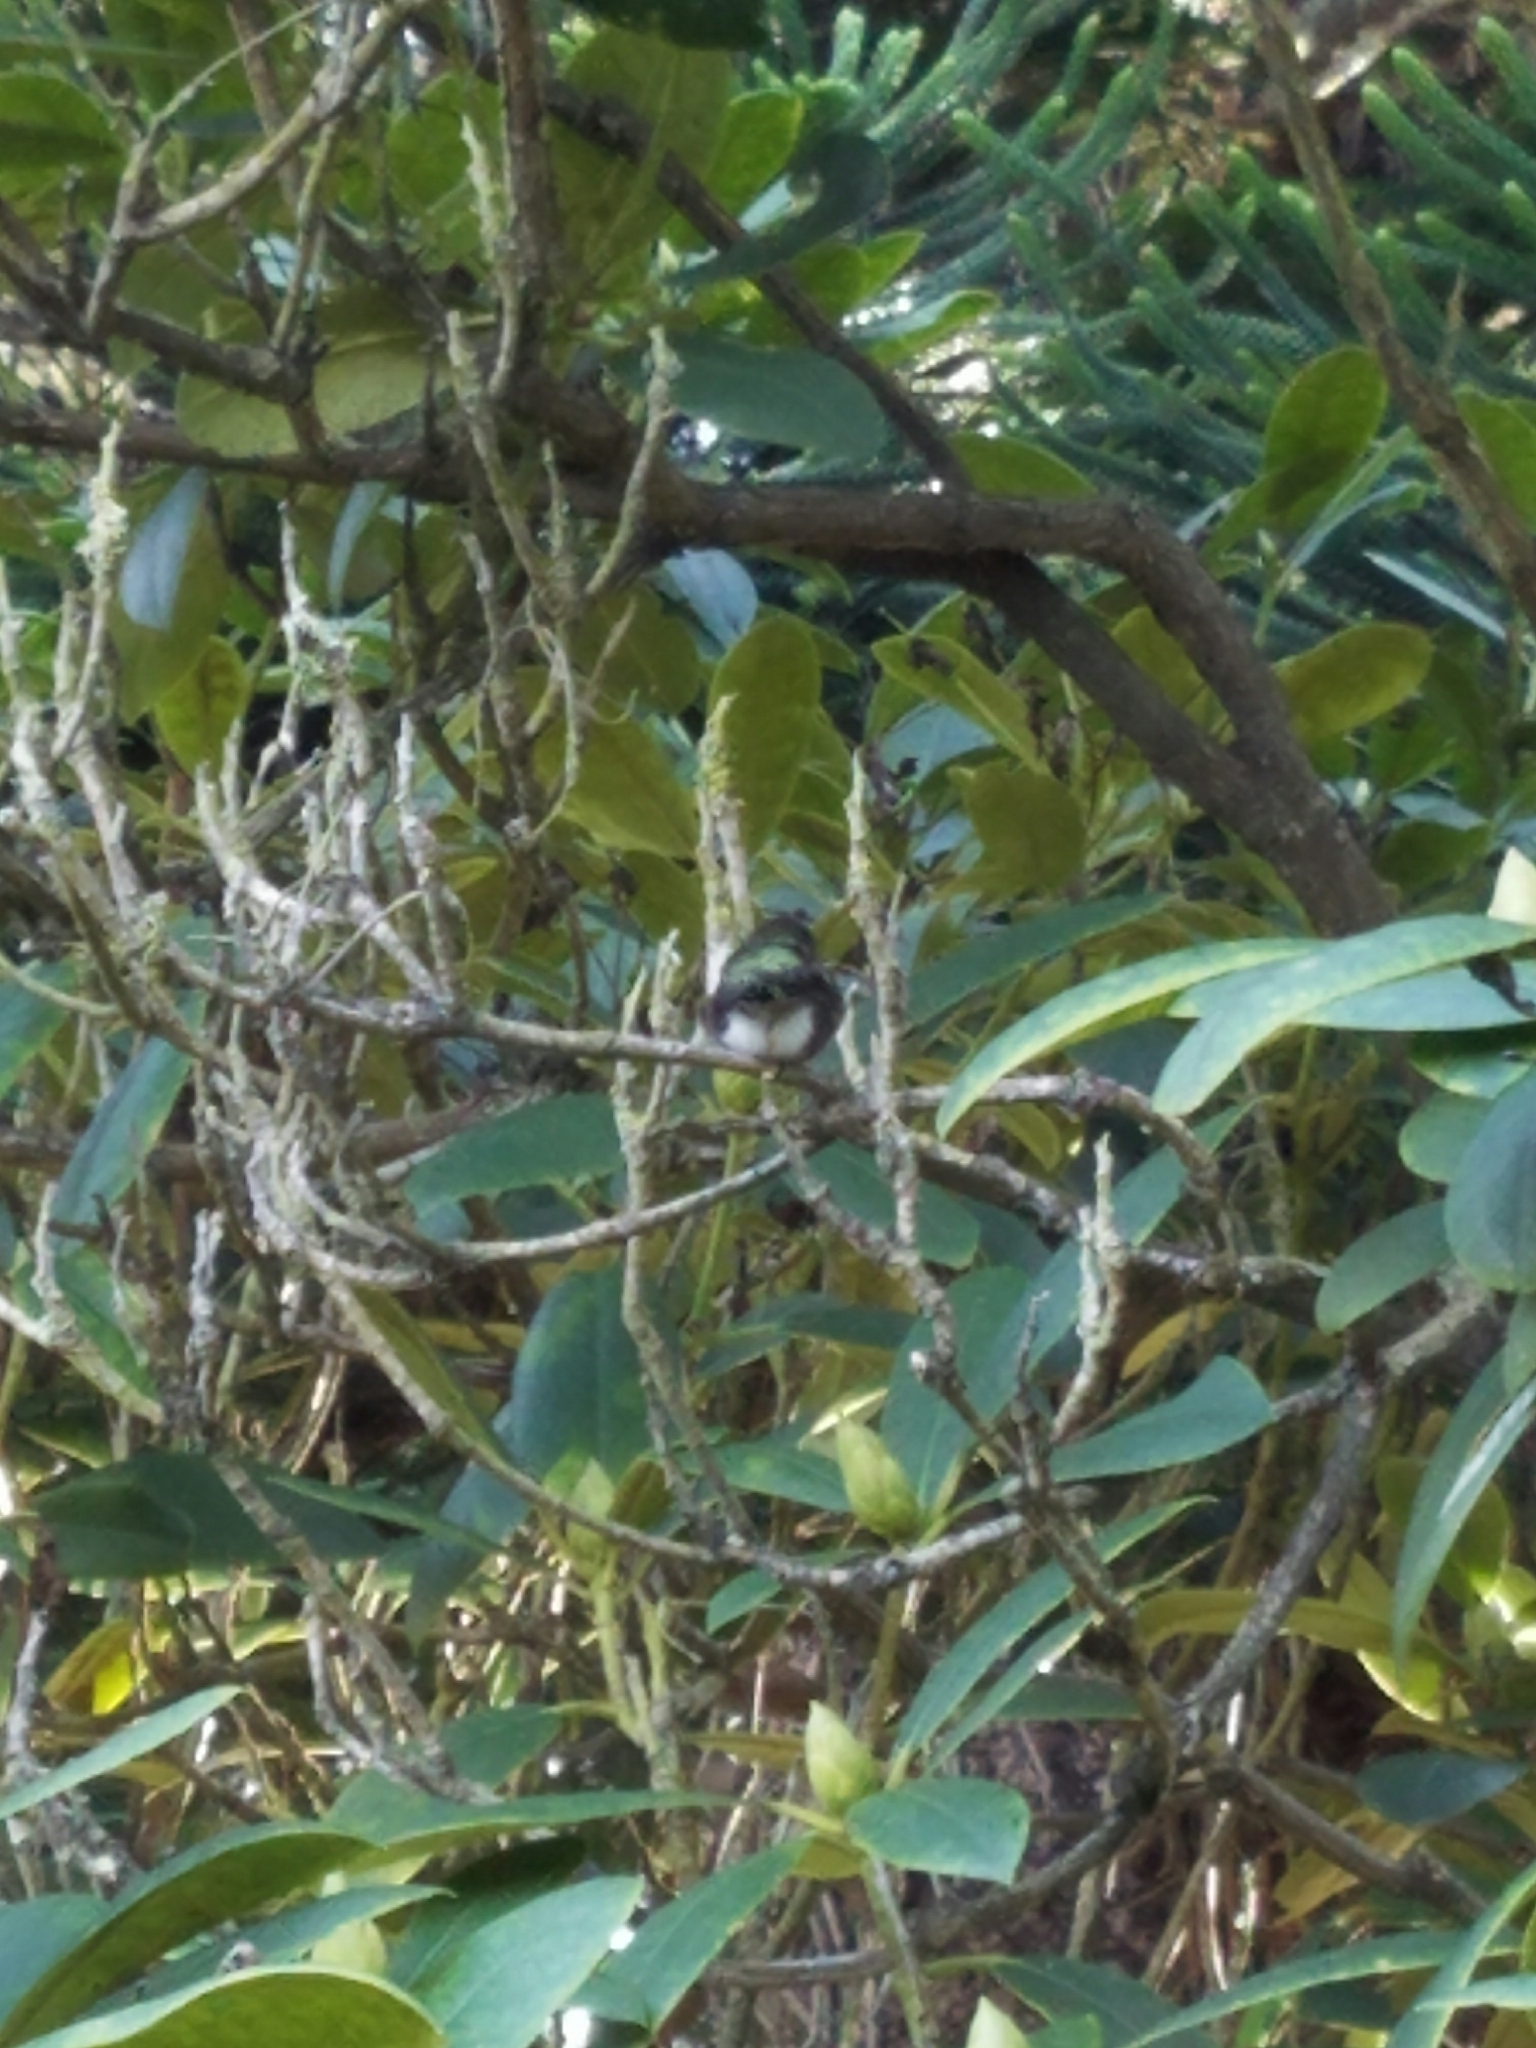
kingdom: Animalia
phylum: Chordata
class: Aves
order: Apodiformes
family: Trochilidae
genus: Calypte
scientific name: Calypte anna
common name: Anna's hummingbird
